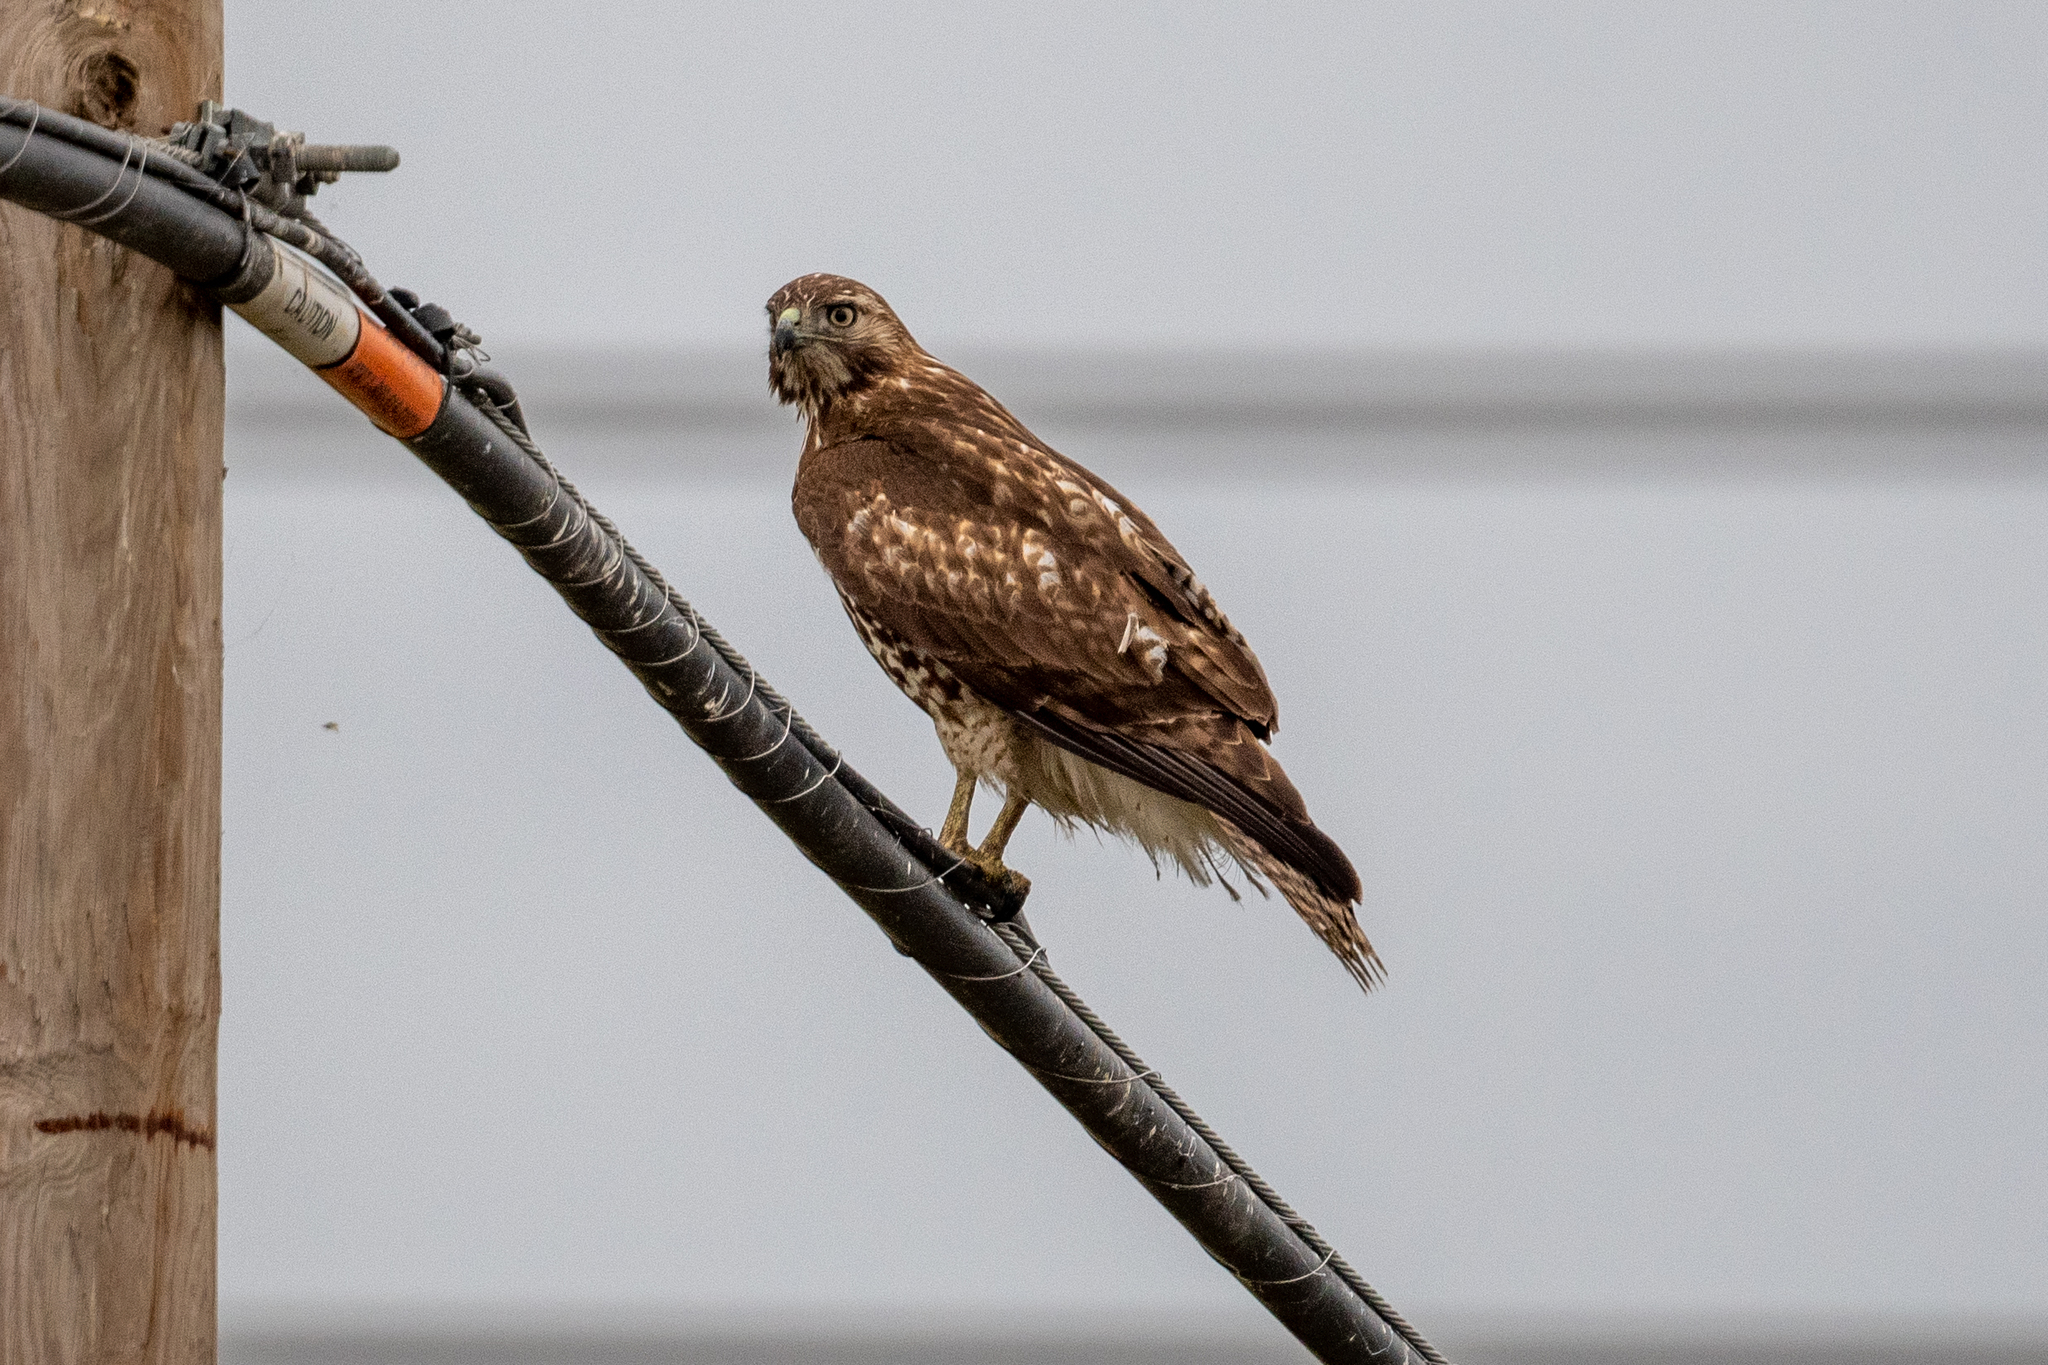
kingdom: Animalia
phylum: Chordata
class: Aves
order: Accipitriformes
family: Accipitridae
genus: Buteo
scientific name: Buteo jamaicensis
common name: Red-tailed hawk
